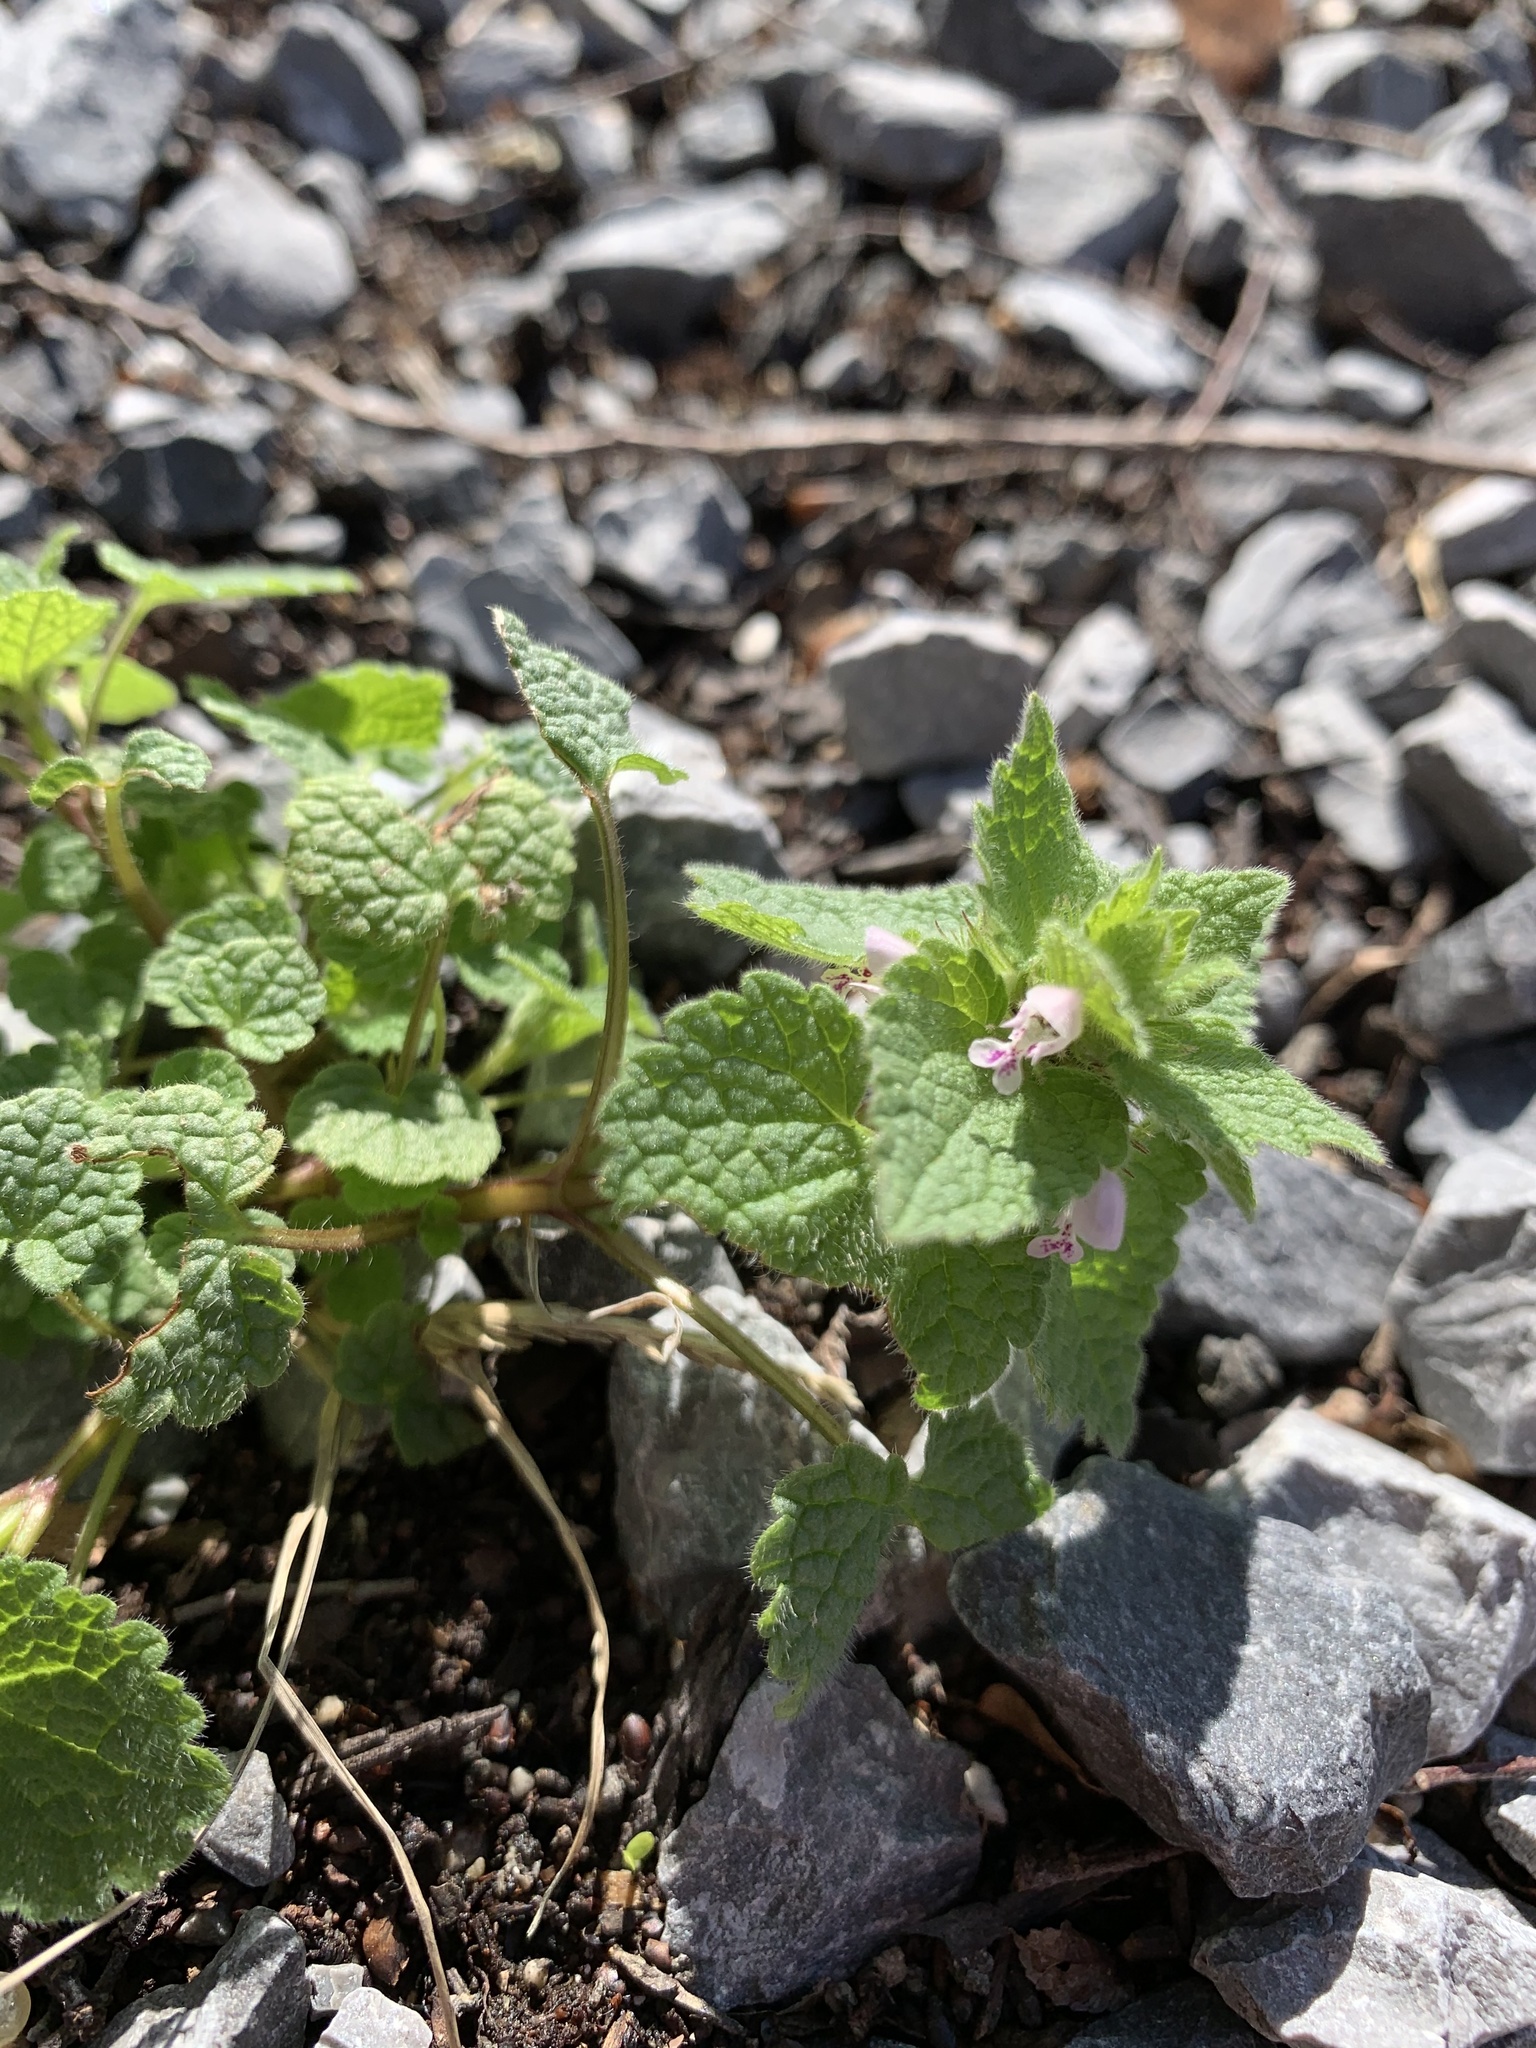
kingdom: Plantae
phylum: Tracheophyta
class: Magnoliopsida
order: Lamiales
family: Lamiaceae
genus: Lamium
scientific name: Lamium purpureum
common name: Red dead-nettle
